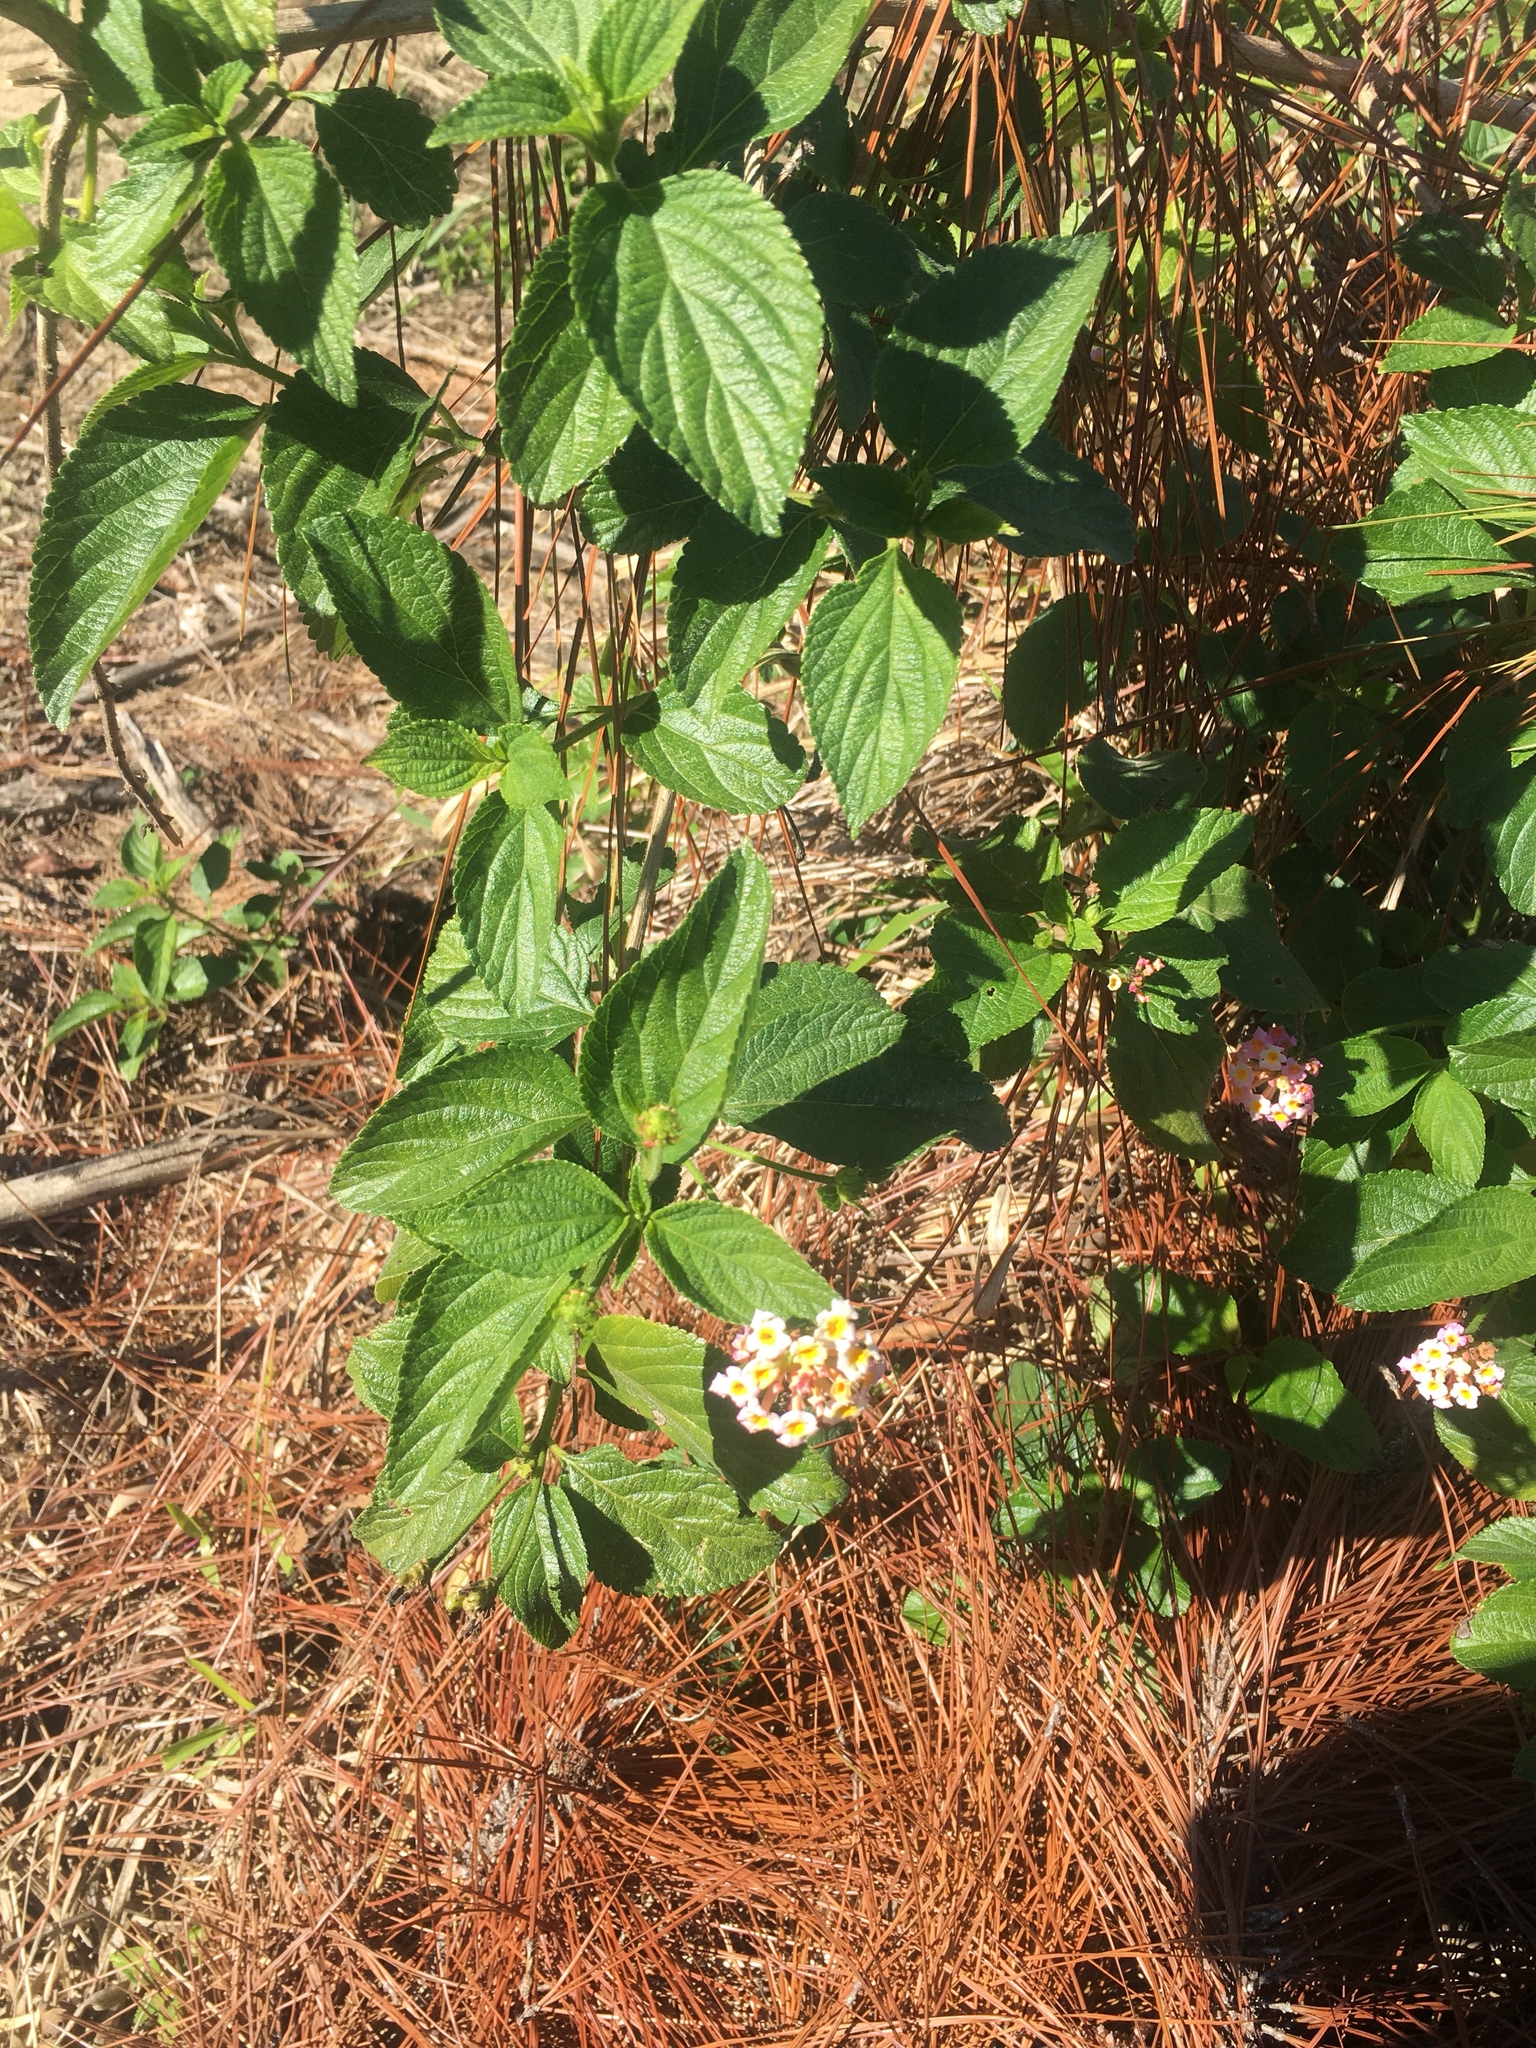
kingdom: Plantae
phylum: Tracheophyta
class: Magnoliopsida
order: Lamiales
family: Verbenaceae
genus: Lantana
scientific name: Lantana camara
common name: Lantana
